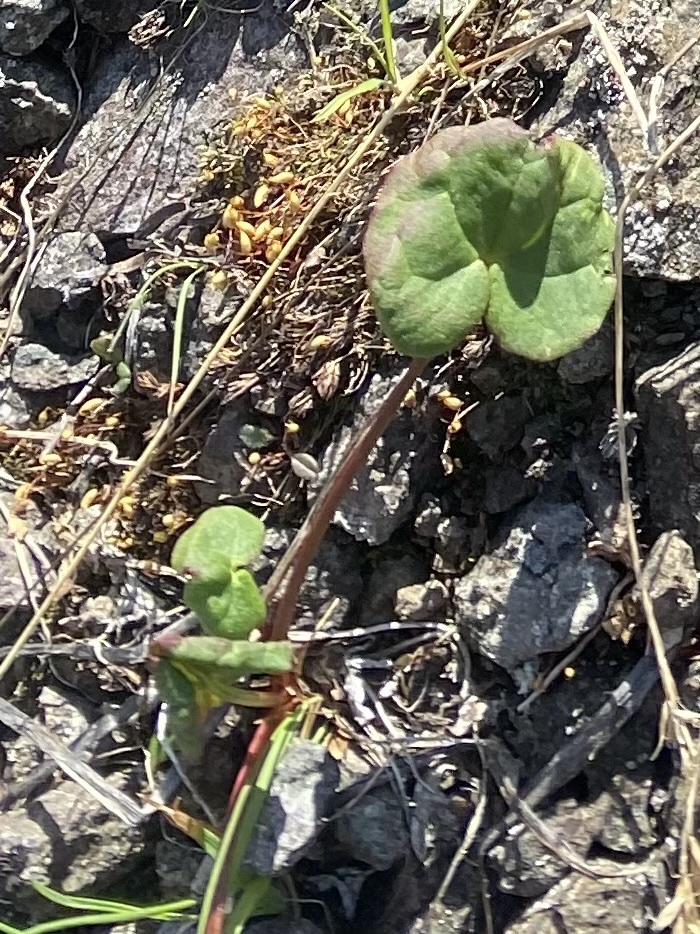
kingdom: Plantae
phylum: Tracheophyta
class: Magnoliopsida
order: Caryophyllales
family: Polygonaceae
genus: Oxyria
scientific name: Oxyria digyna
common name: Alpine mountain-sorrel
